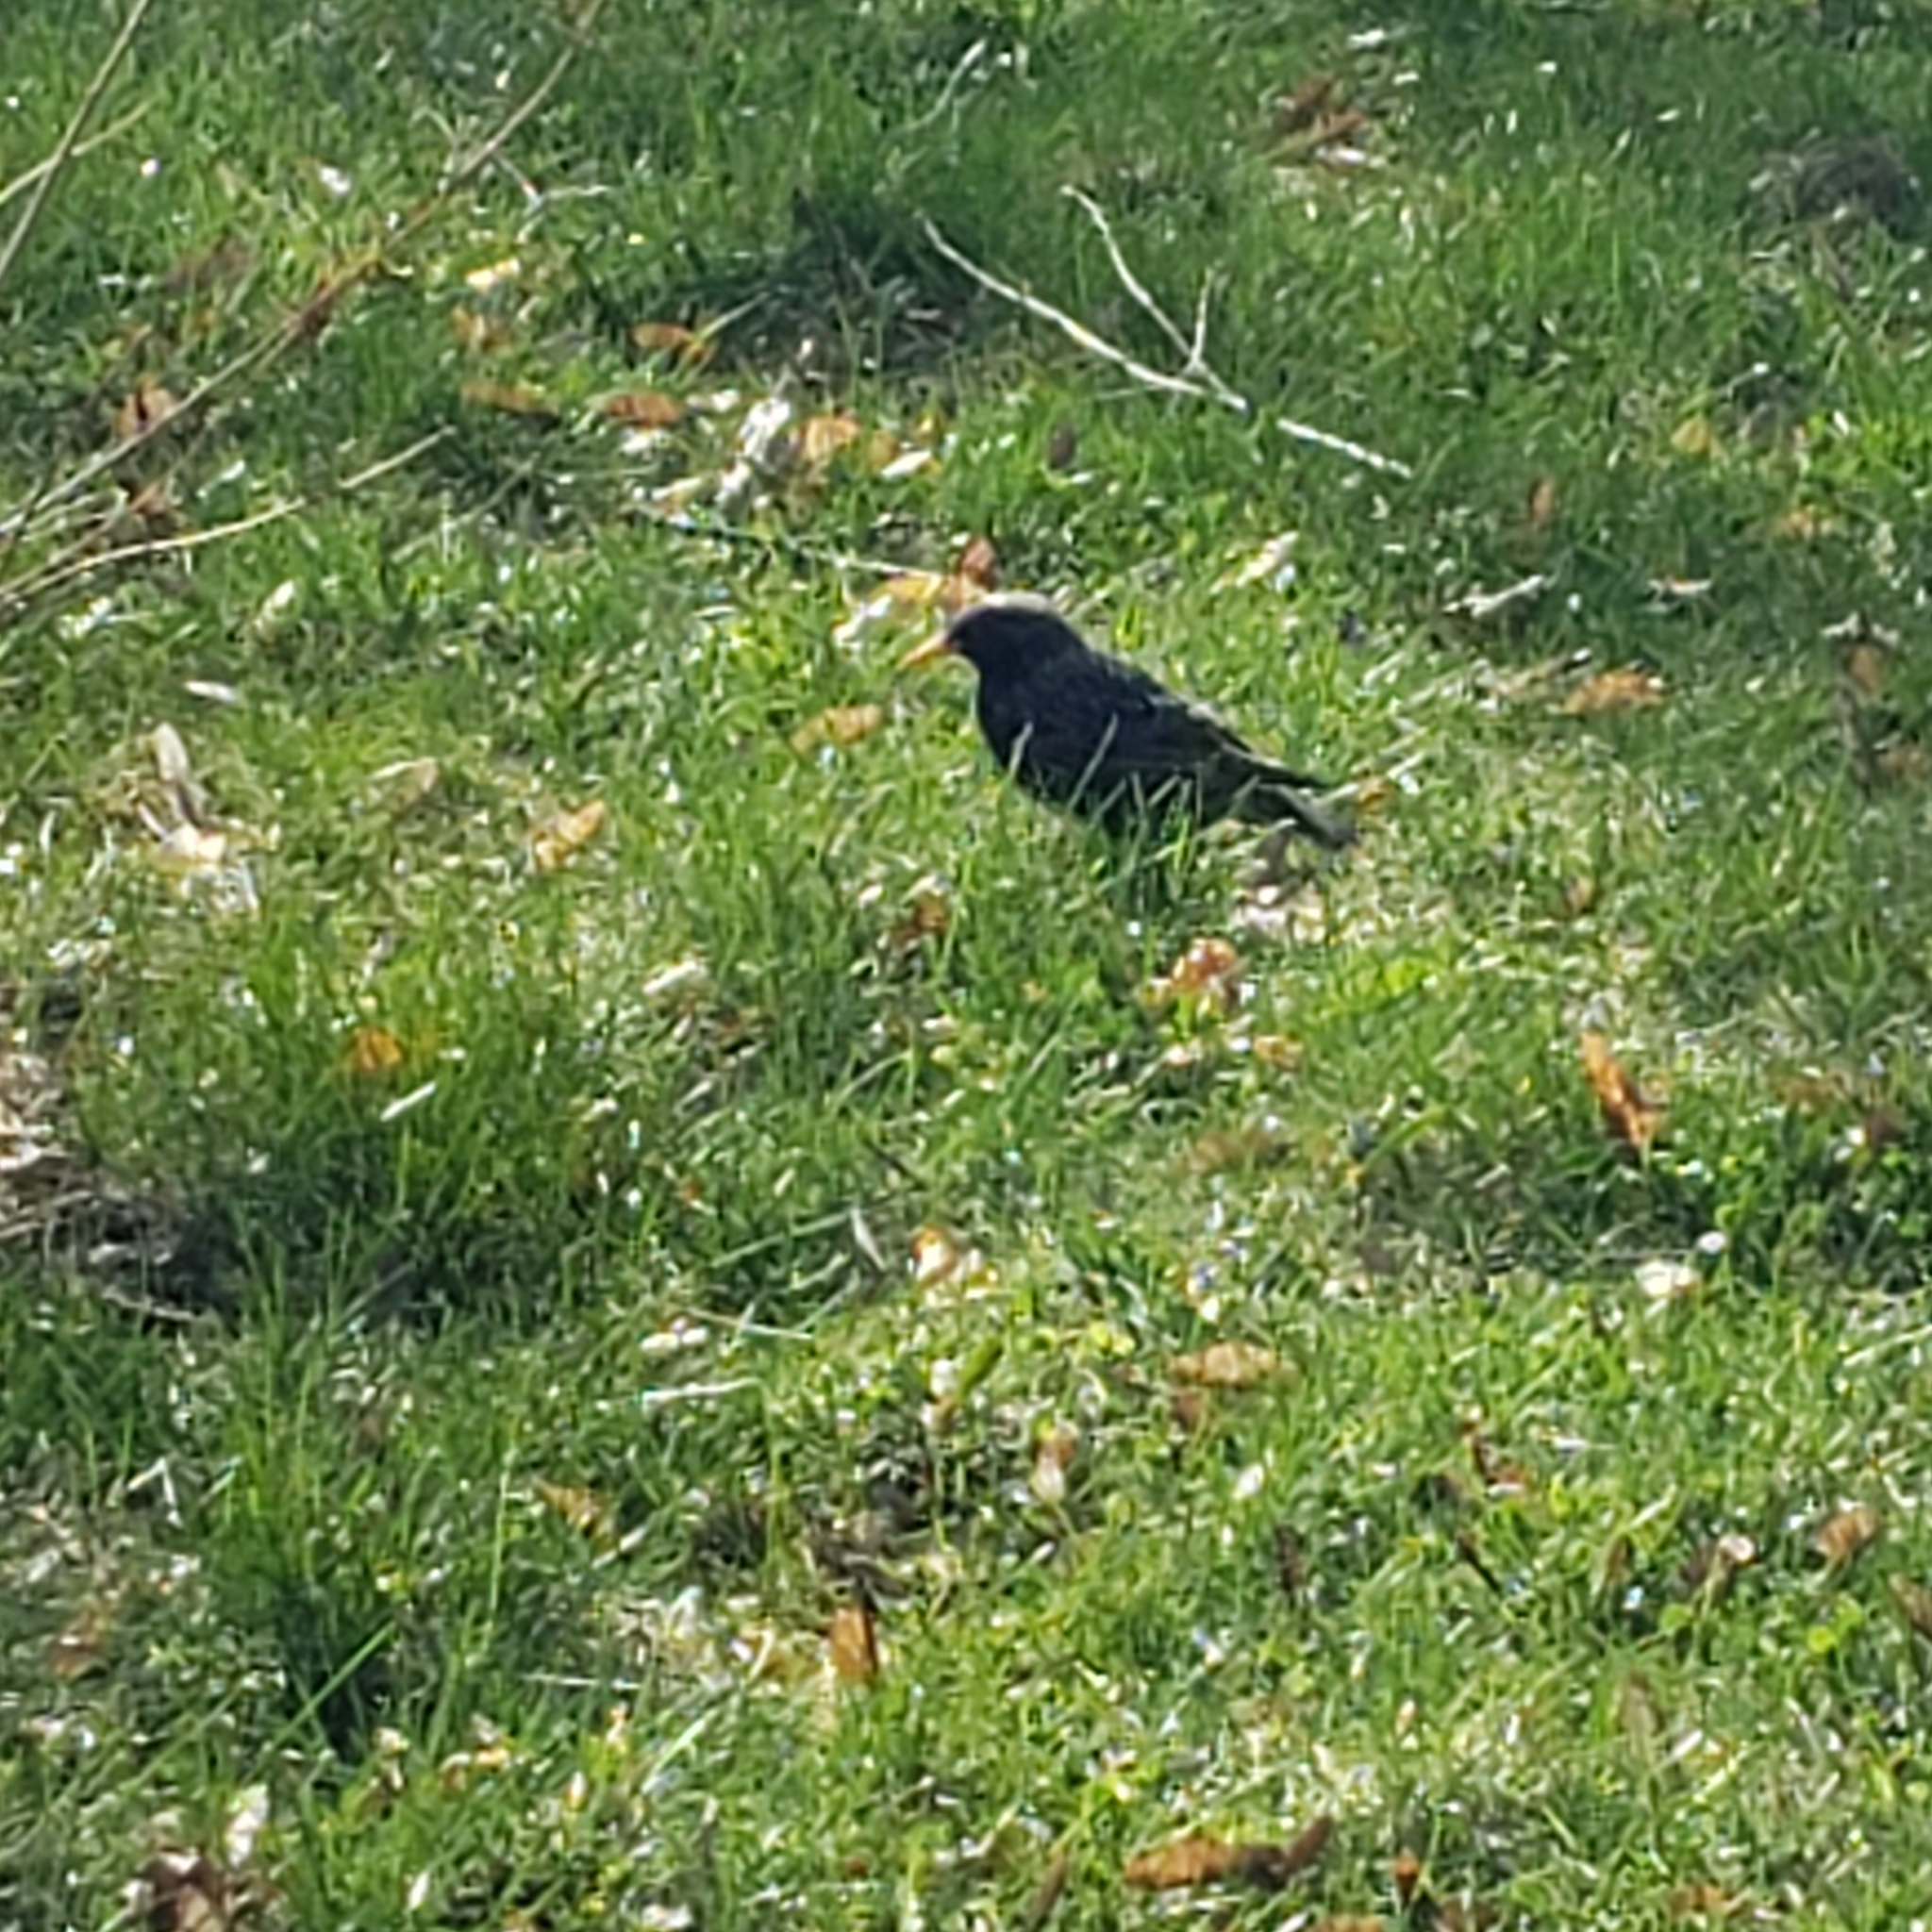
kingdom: Animalia
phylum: Chordata
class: Aves
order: Passeriformes
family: Sturnidae
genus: Sturnus
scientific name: Sturnus vulgaris
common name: Common starling
